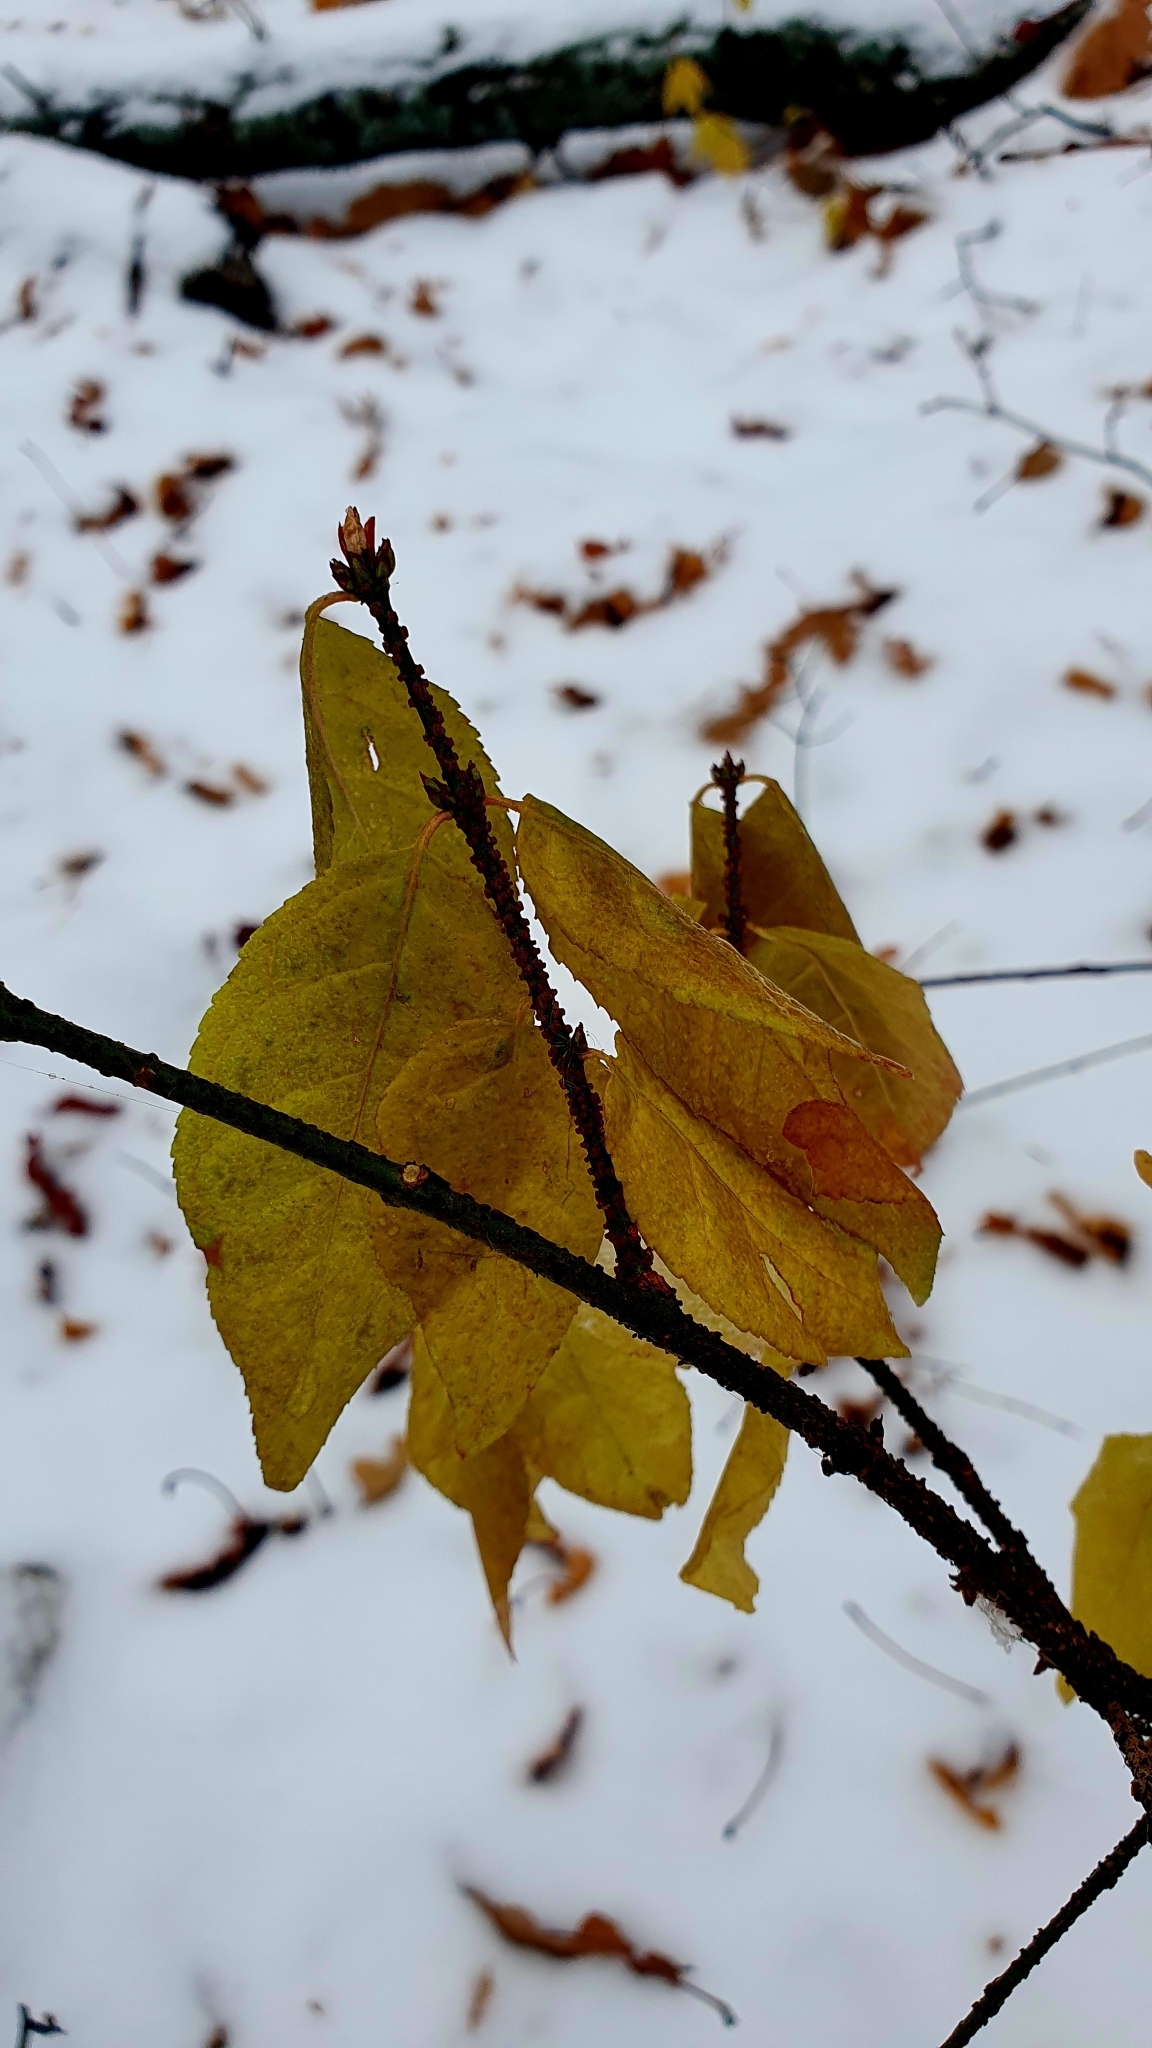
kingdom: Plantae
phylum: Tracheophyta
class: Magnoliopsida
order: Celastrales
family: Celastraceae
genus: Euonymus
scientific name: Euonymus verrucosus
